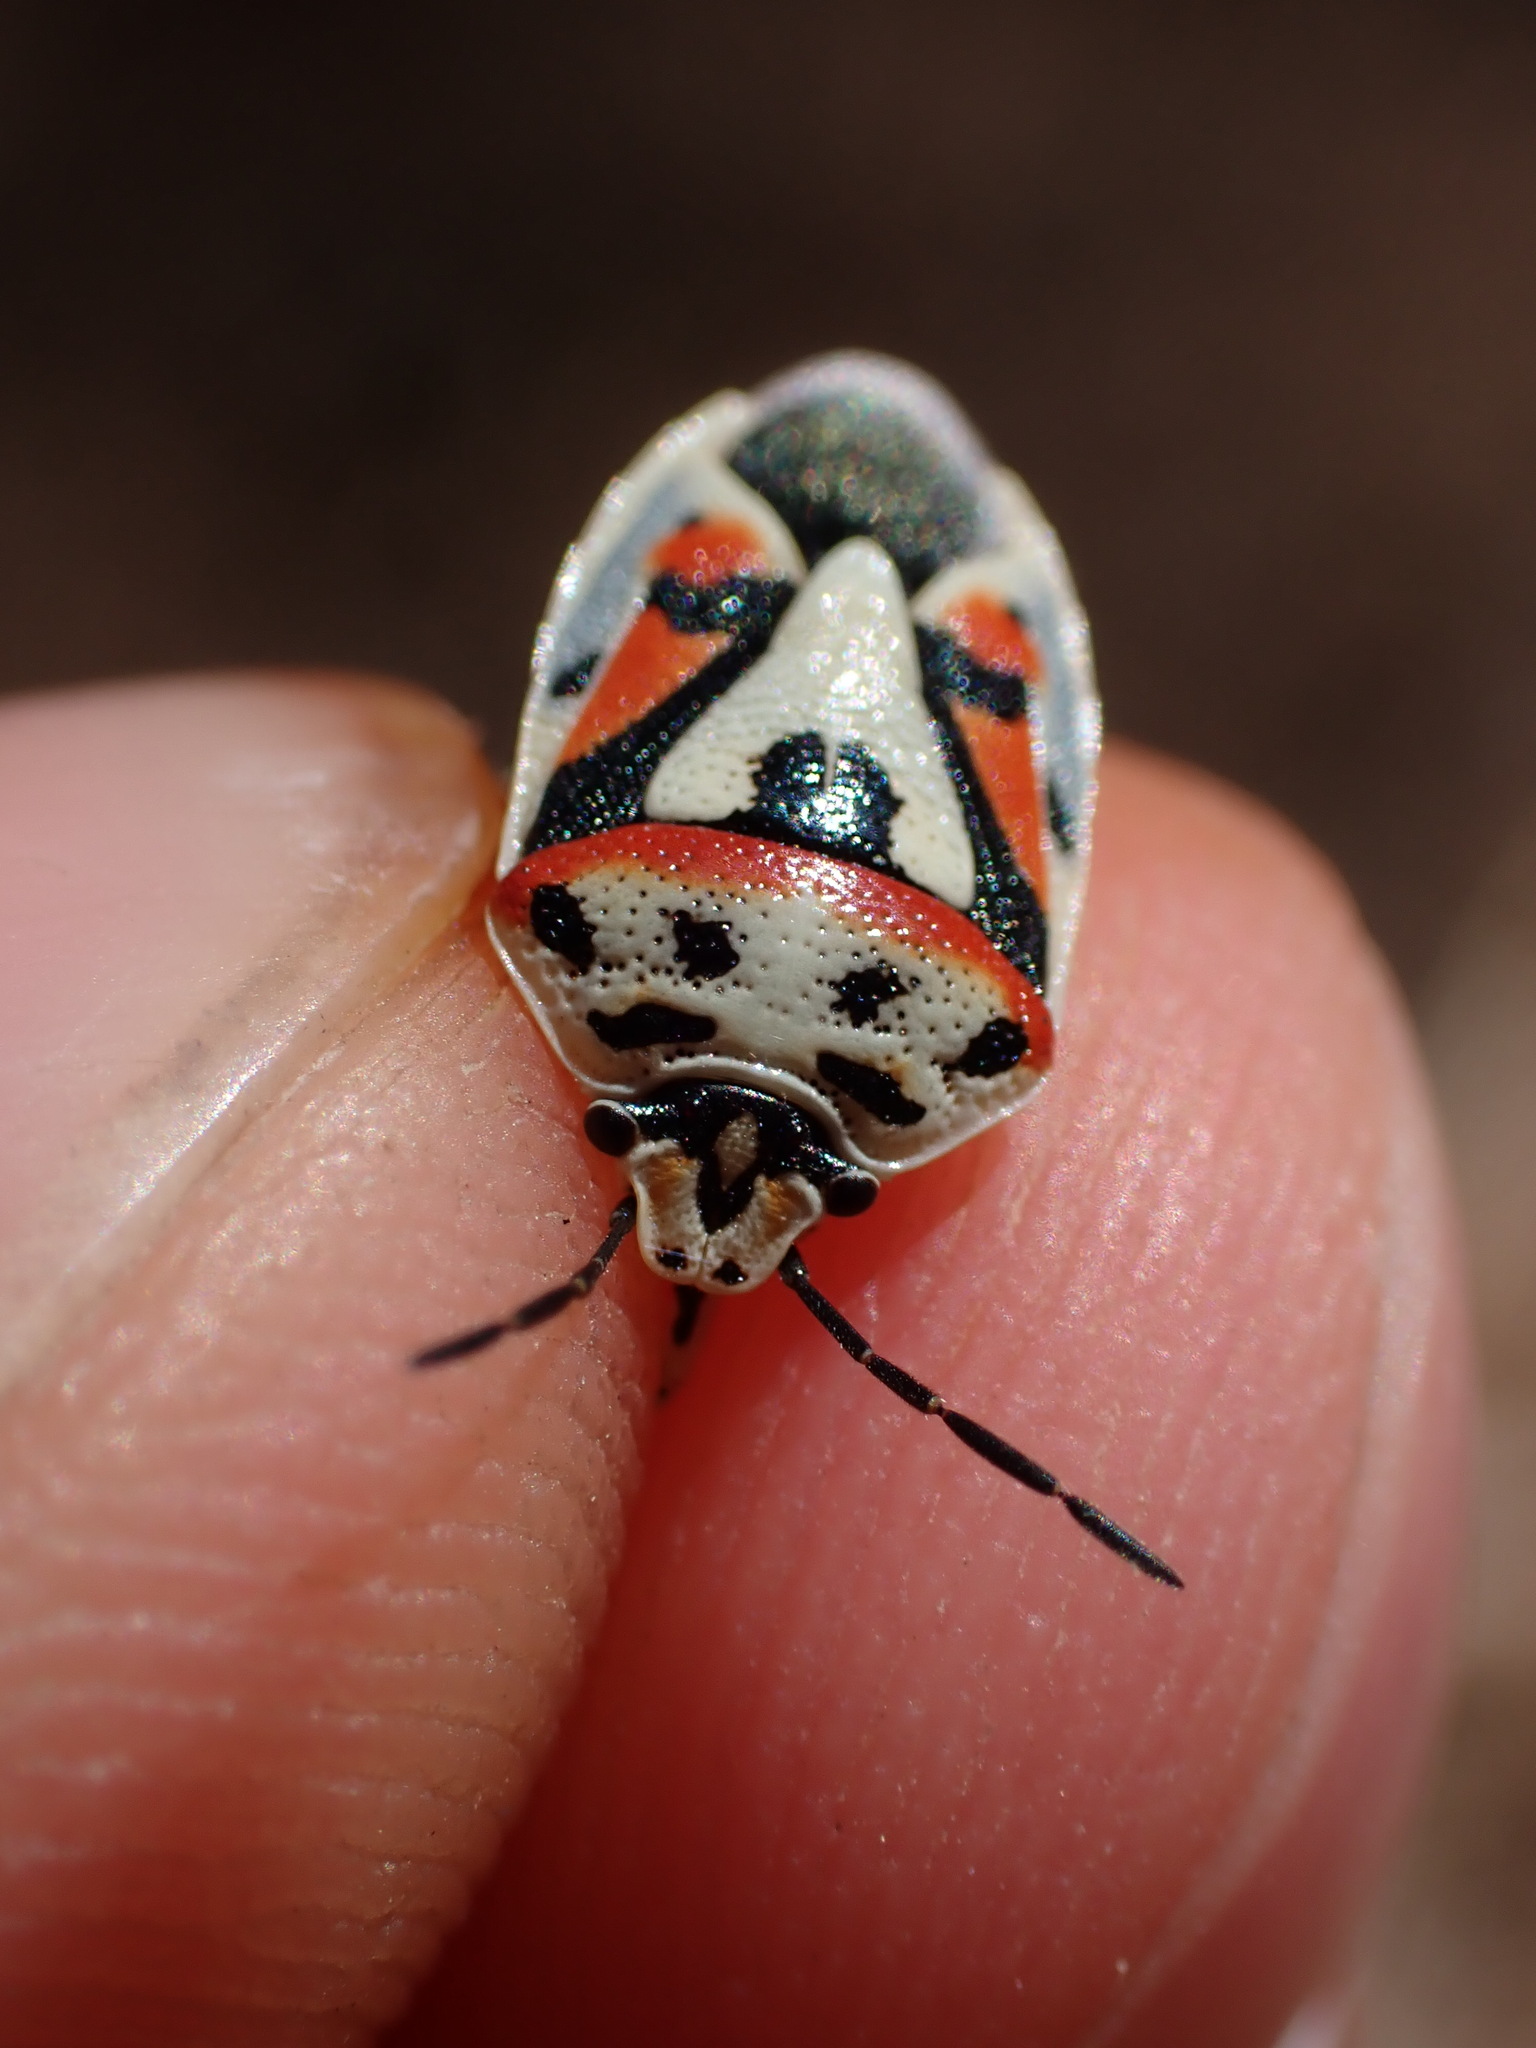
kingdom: Animalia
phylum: Arthropoda
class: Insecta
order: Hemiptera
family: Pentatomidae
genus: Eurydema
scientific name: Eurydema ornata
